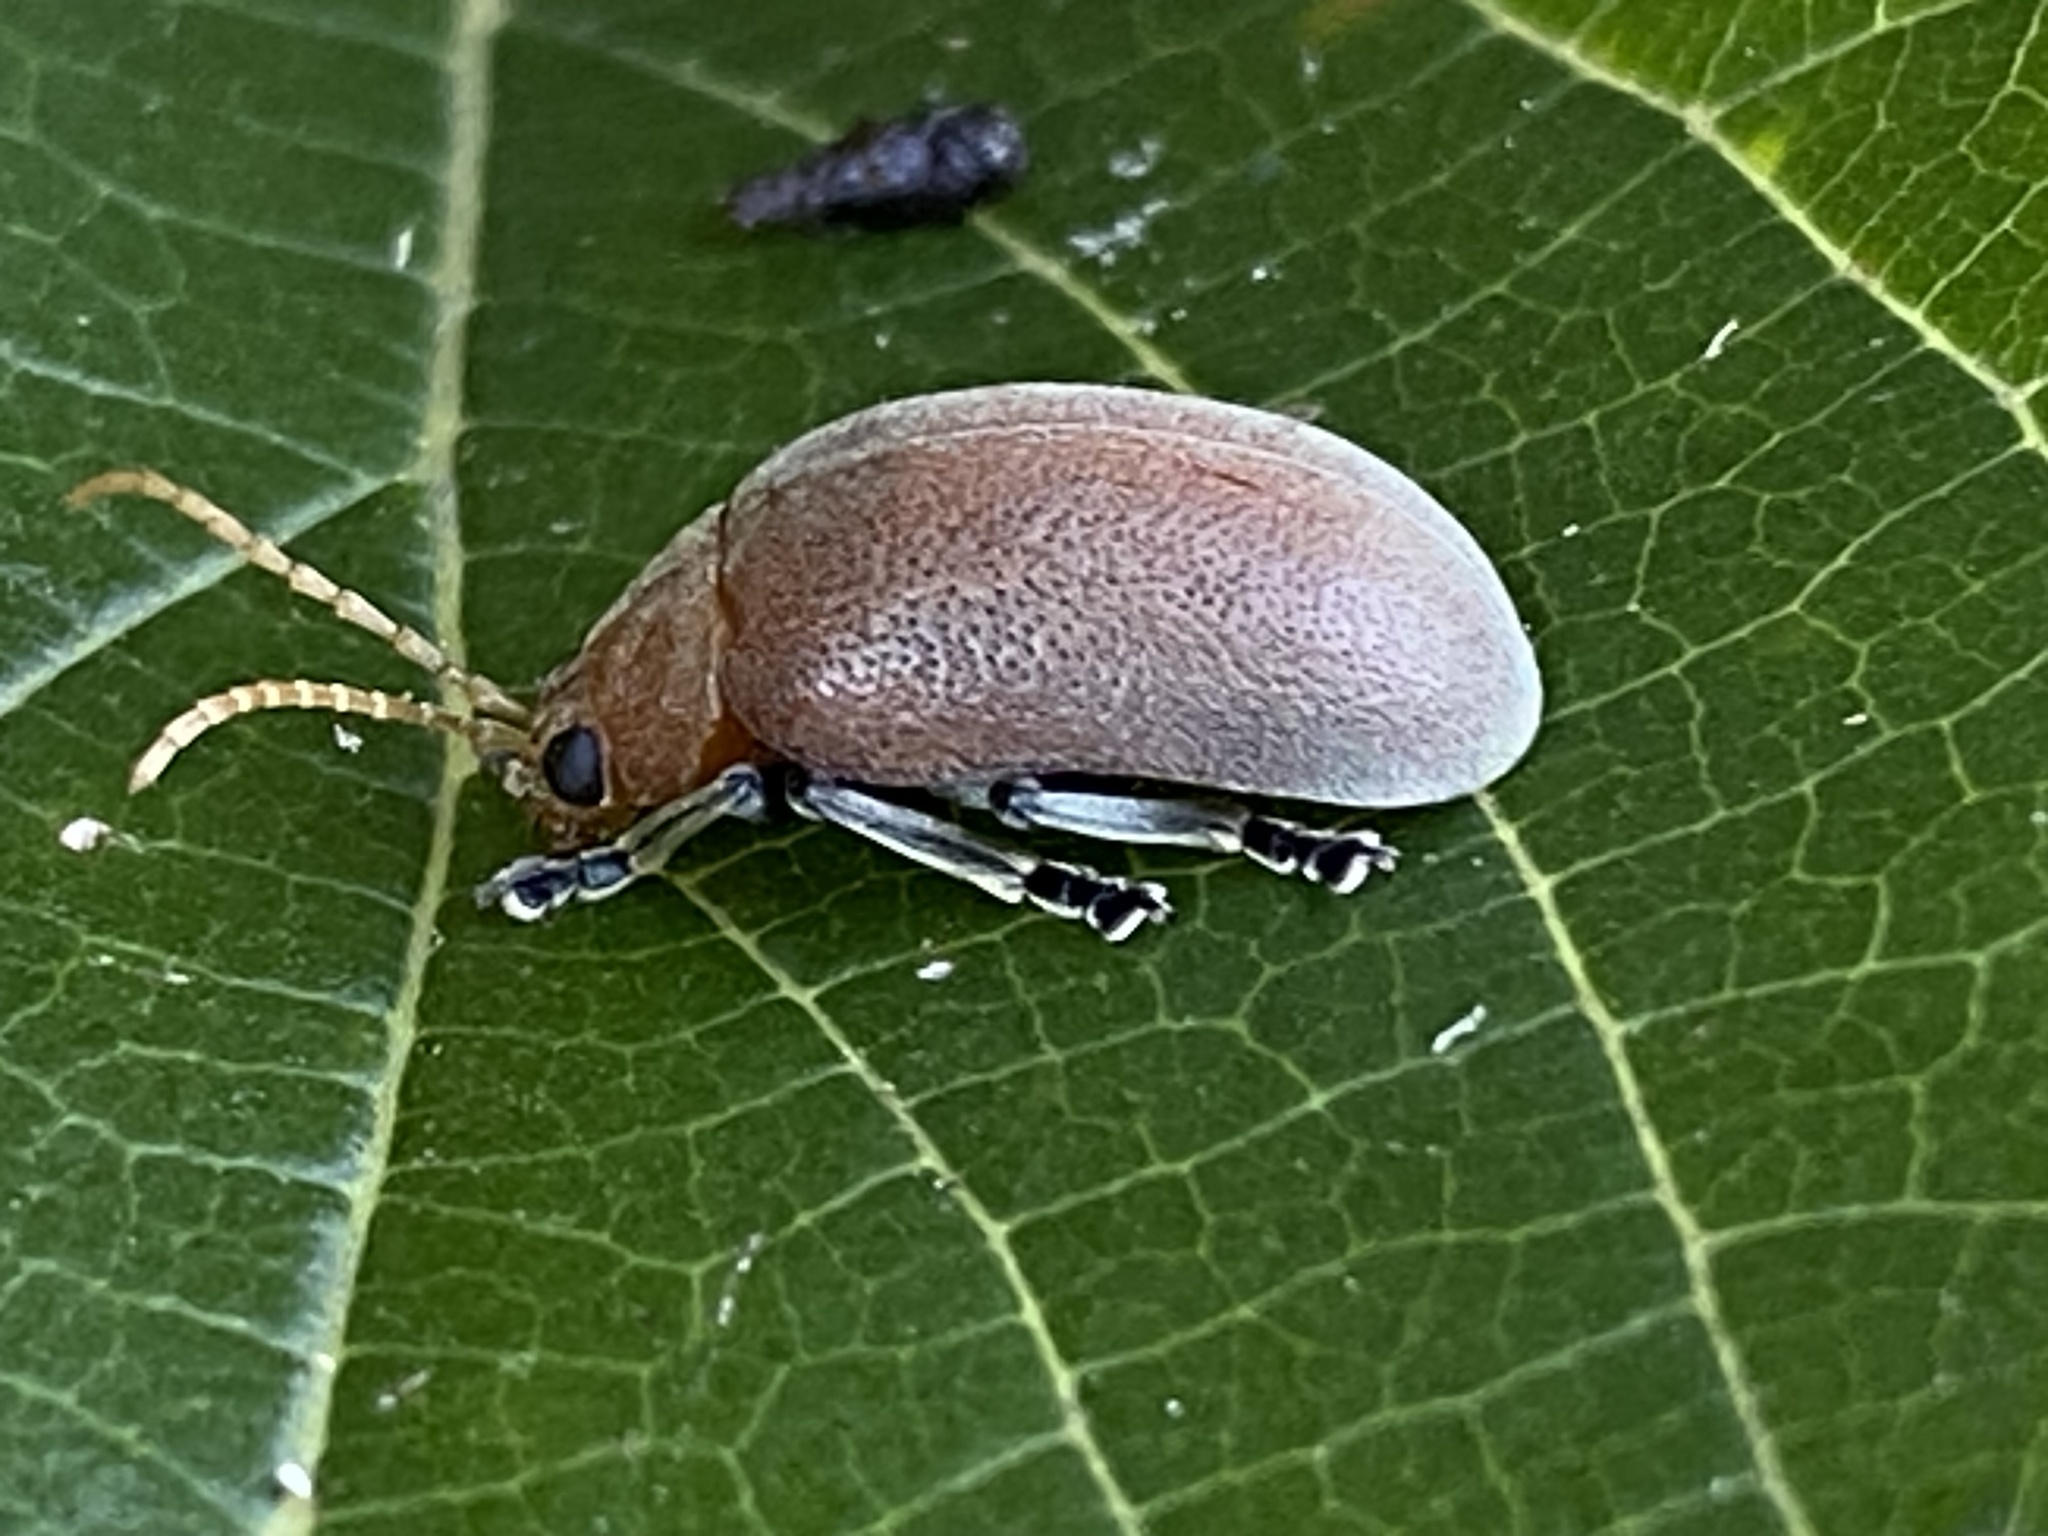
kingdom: Animalia
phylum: Arthropoda
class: Insecta
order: Coleoptera
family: Chrysomelidae
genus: Menippus
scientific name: Menippus
